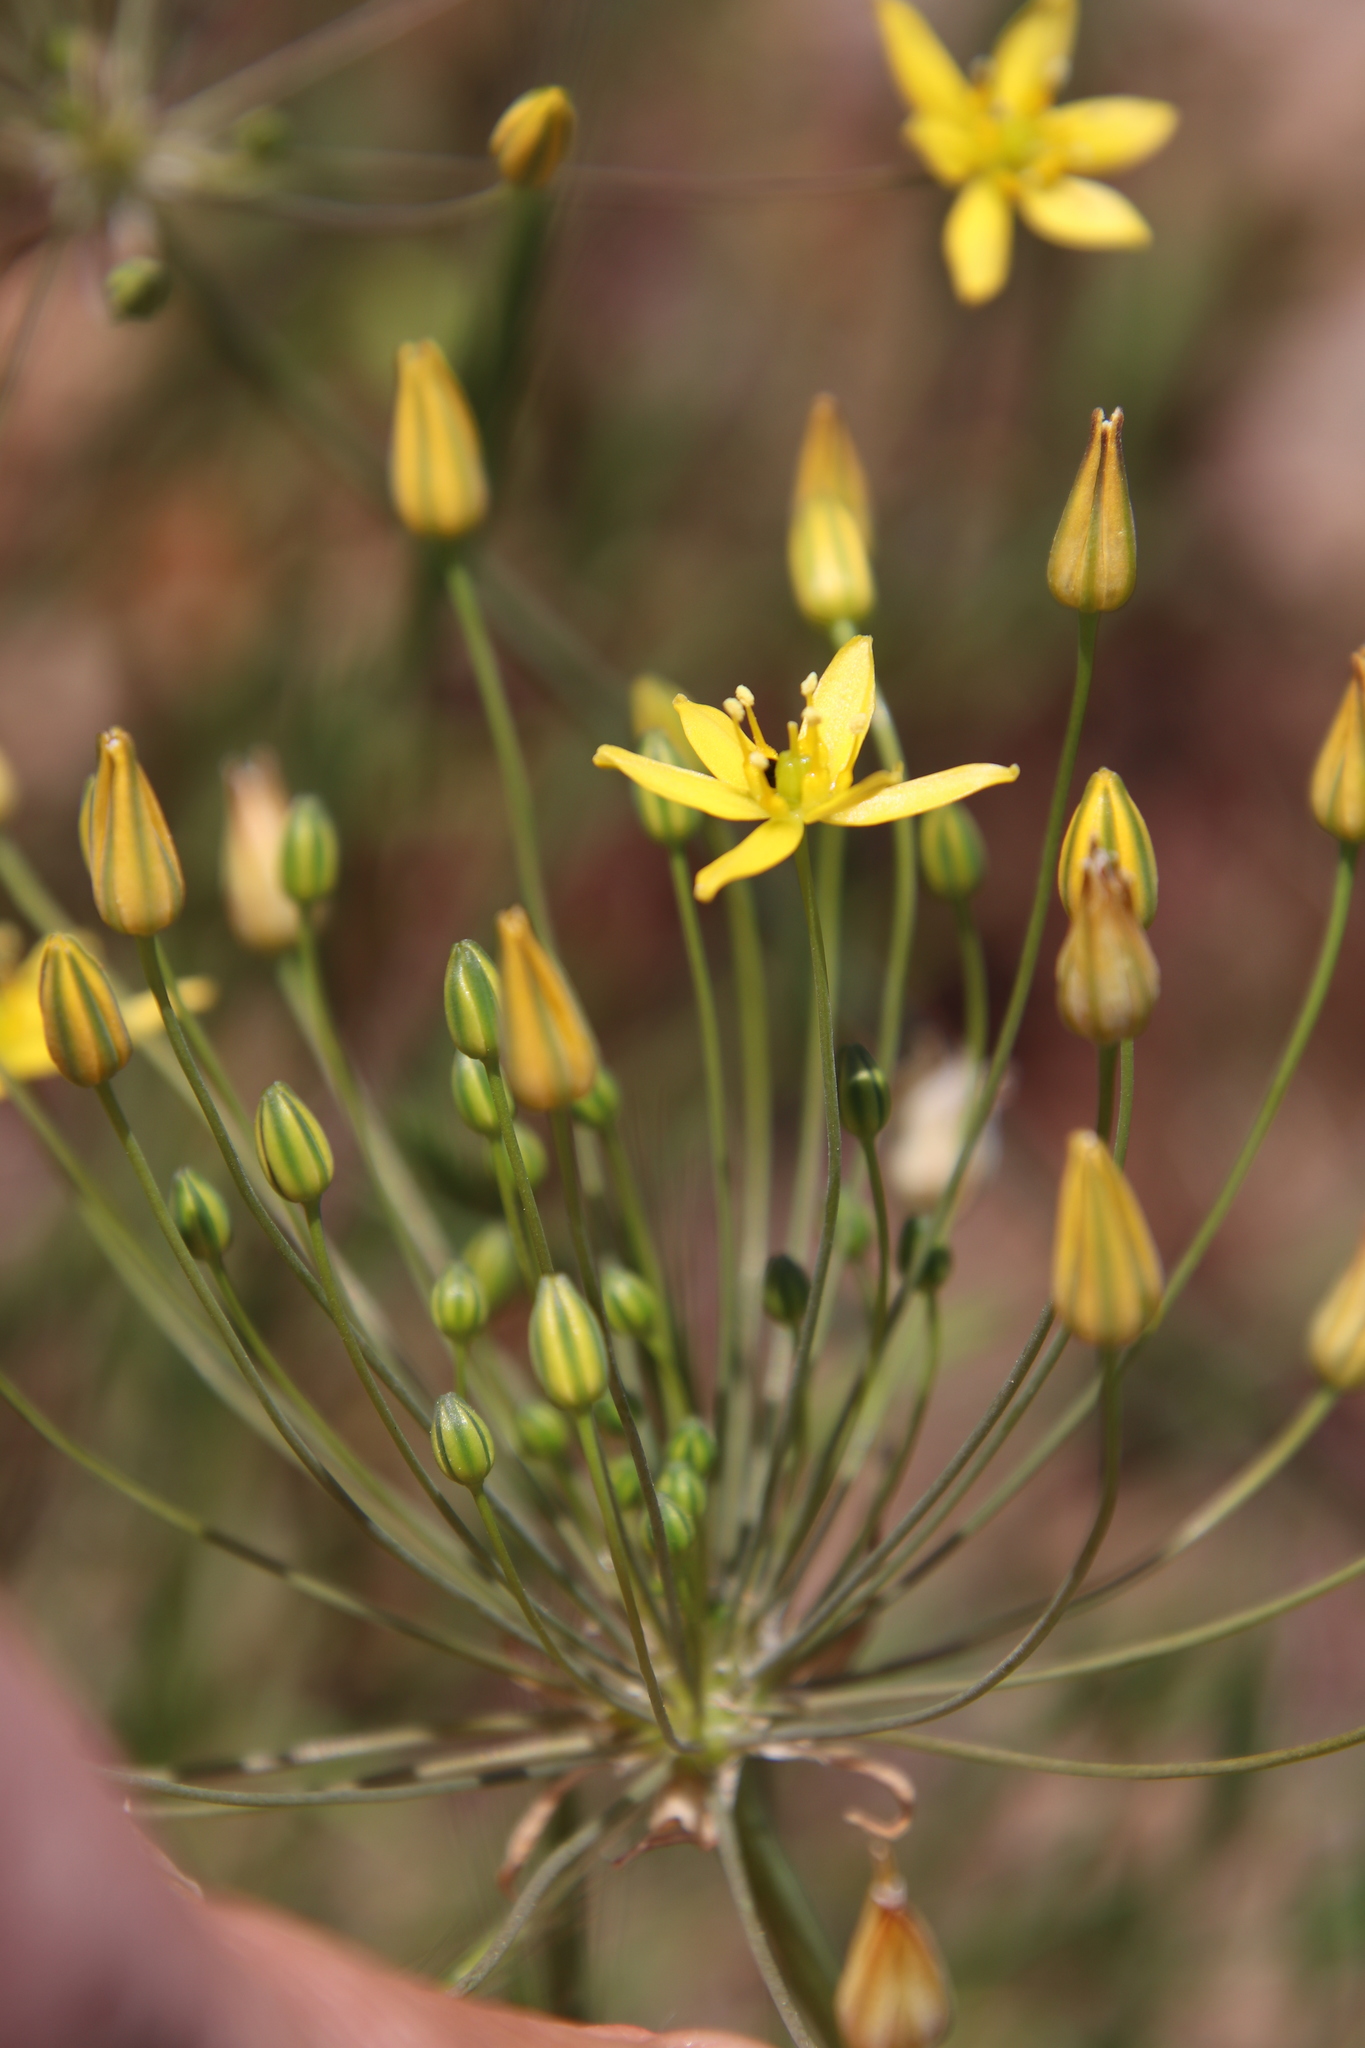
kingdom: Plantae
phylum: Tracheophyta
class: Liliopsida
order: Asparagales
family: Asparagaceae
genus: Bloomeria
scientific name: Bloomeria clevelandii
